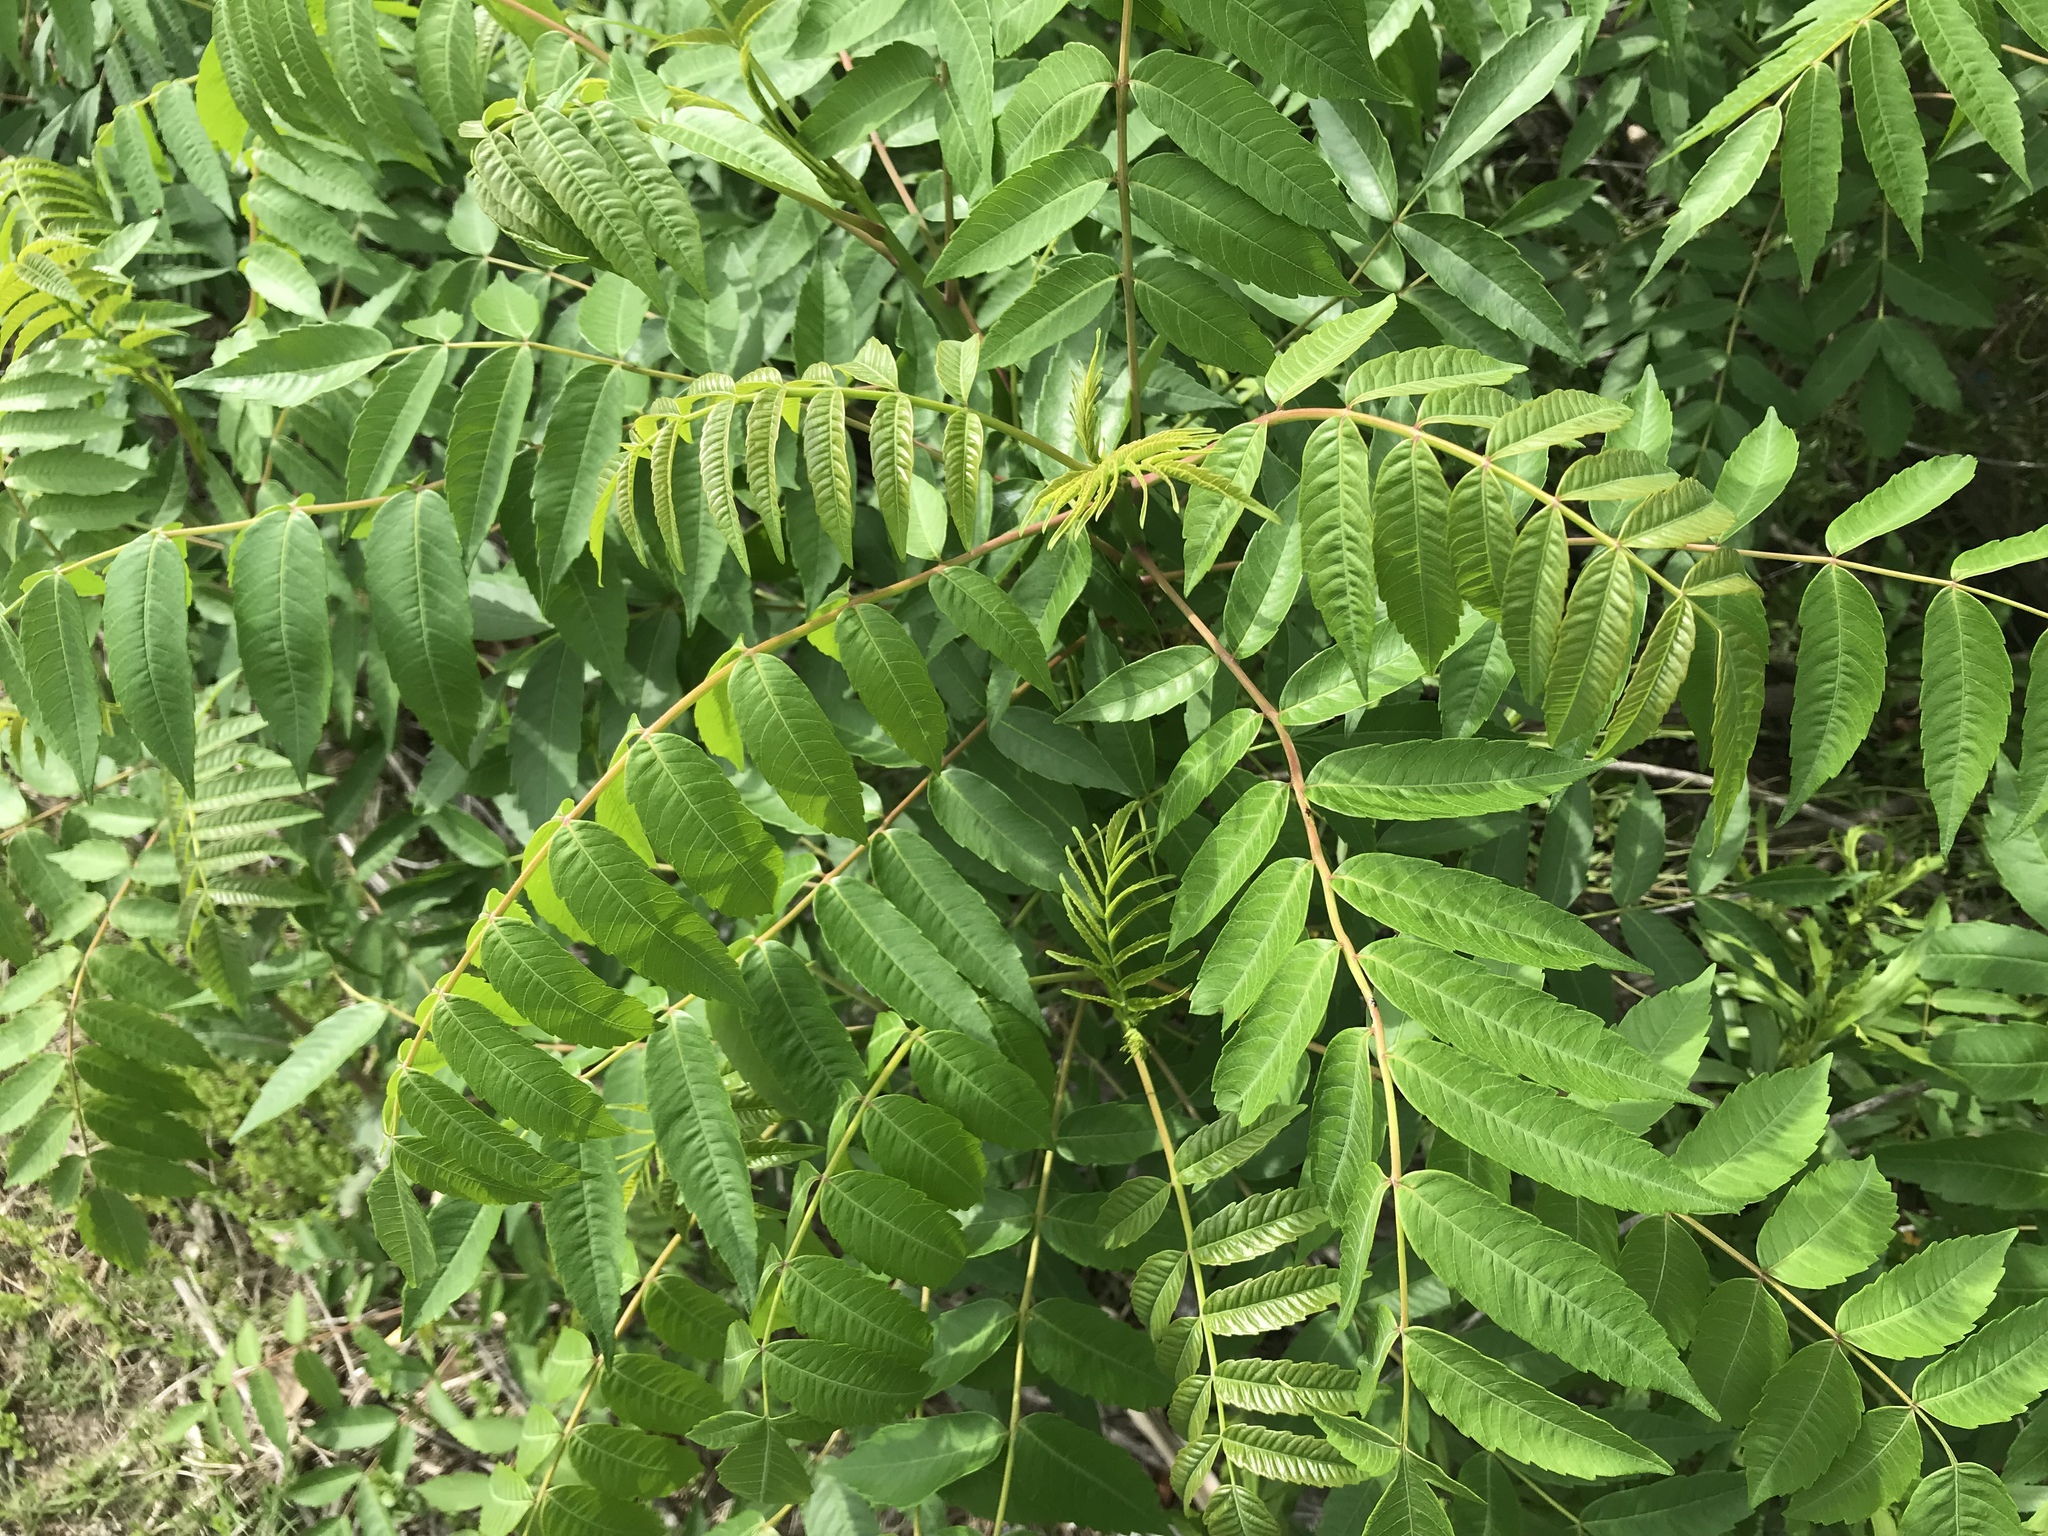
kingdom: Plantae
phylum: Tracheophyta
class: Magnoliopsida
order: Sapindales
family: Anacardiaceae
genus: Rhus
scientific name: Rhus glabra
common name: Scarlet sumac
